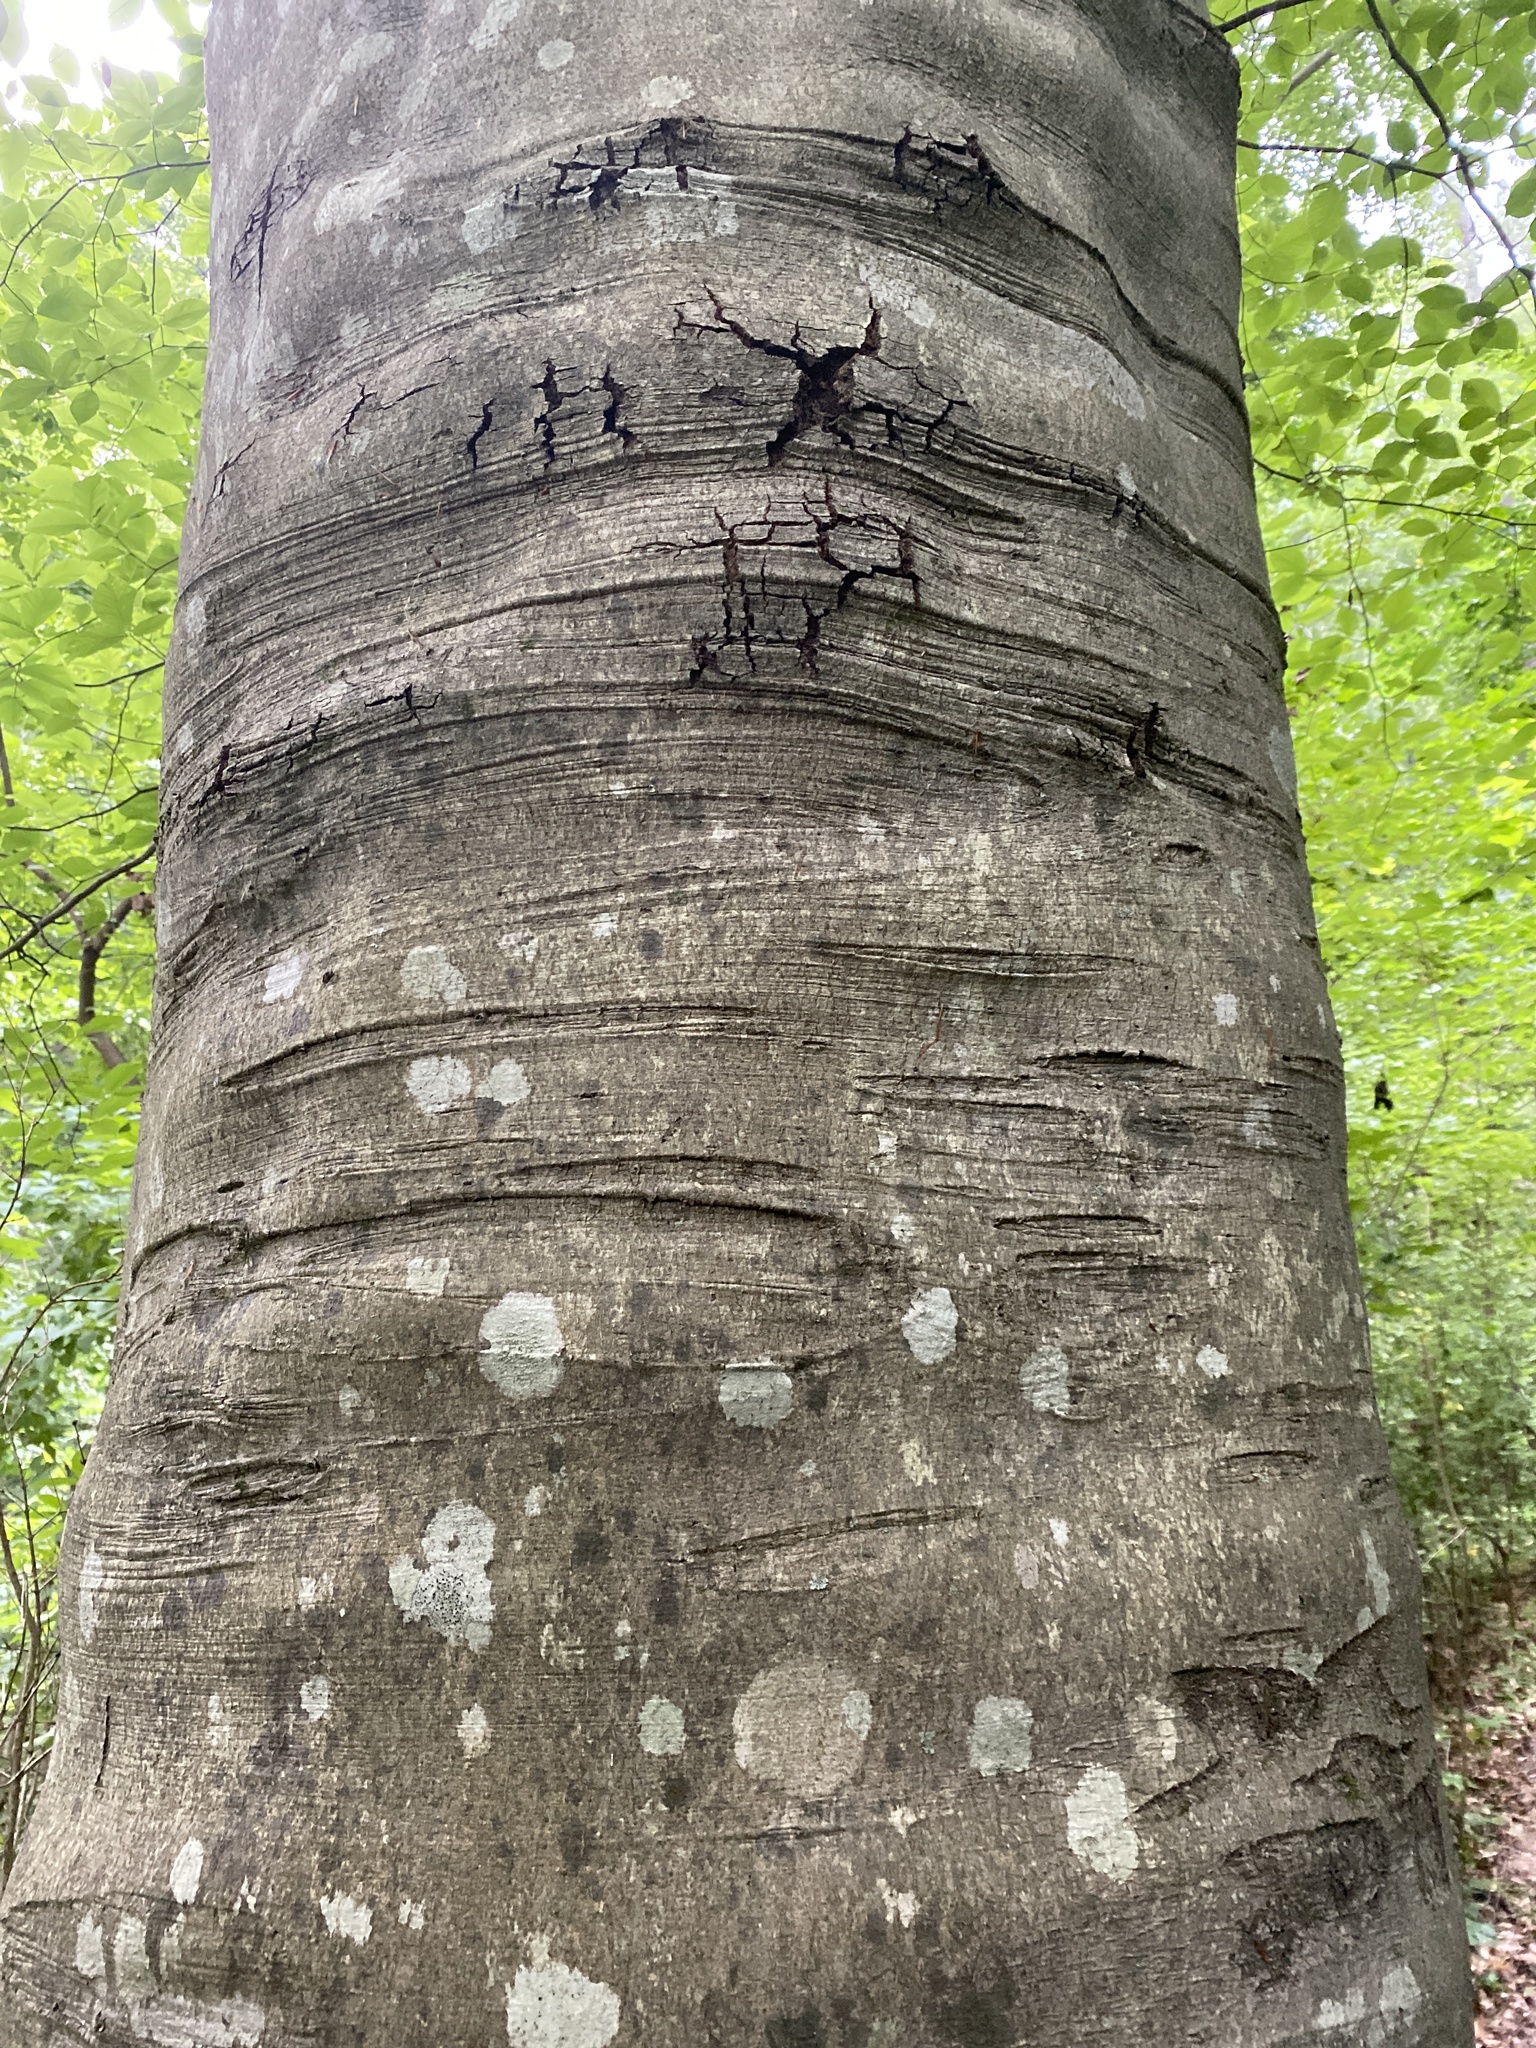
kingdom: Plantae
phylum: Tracheophyta
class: Magnoliopsida
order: Fagales
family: Fagaceae
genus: Fagus
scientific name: Fagus grandifolia
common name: American beech
